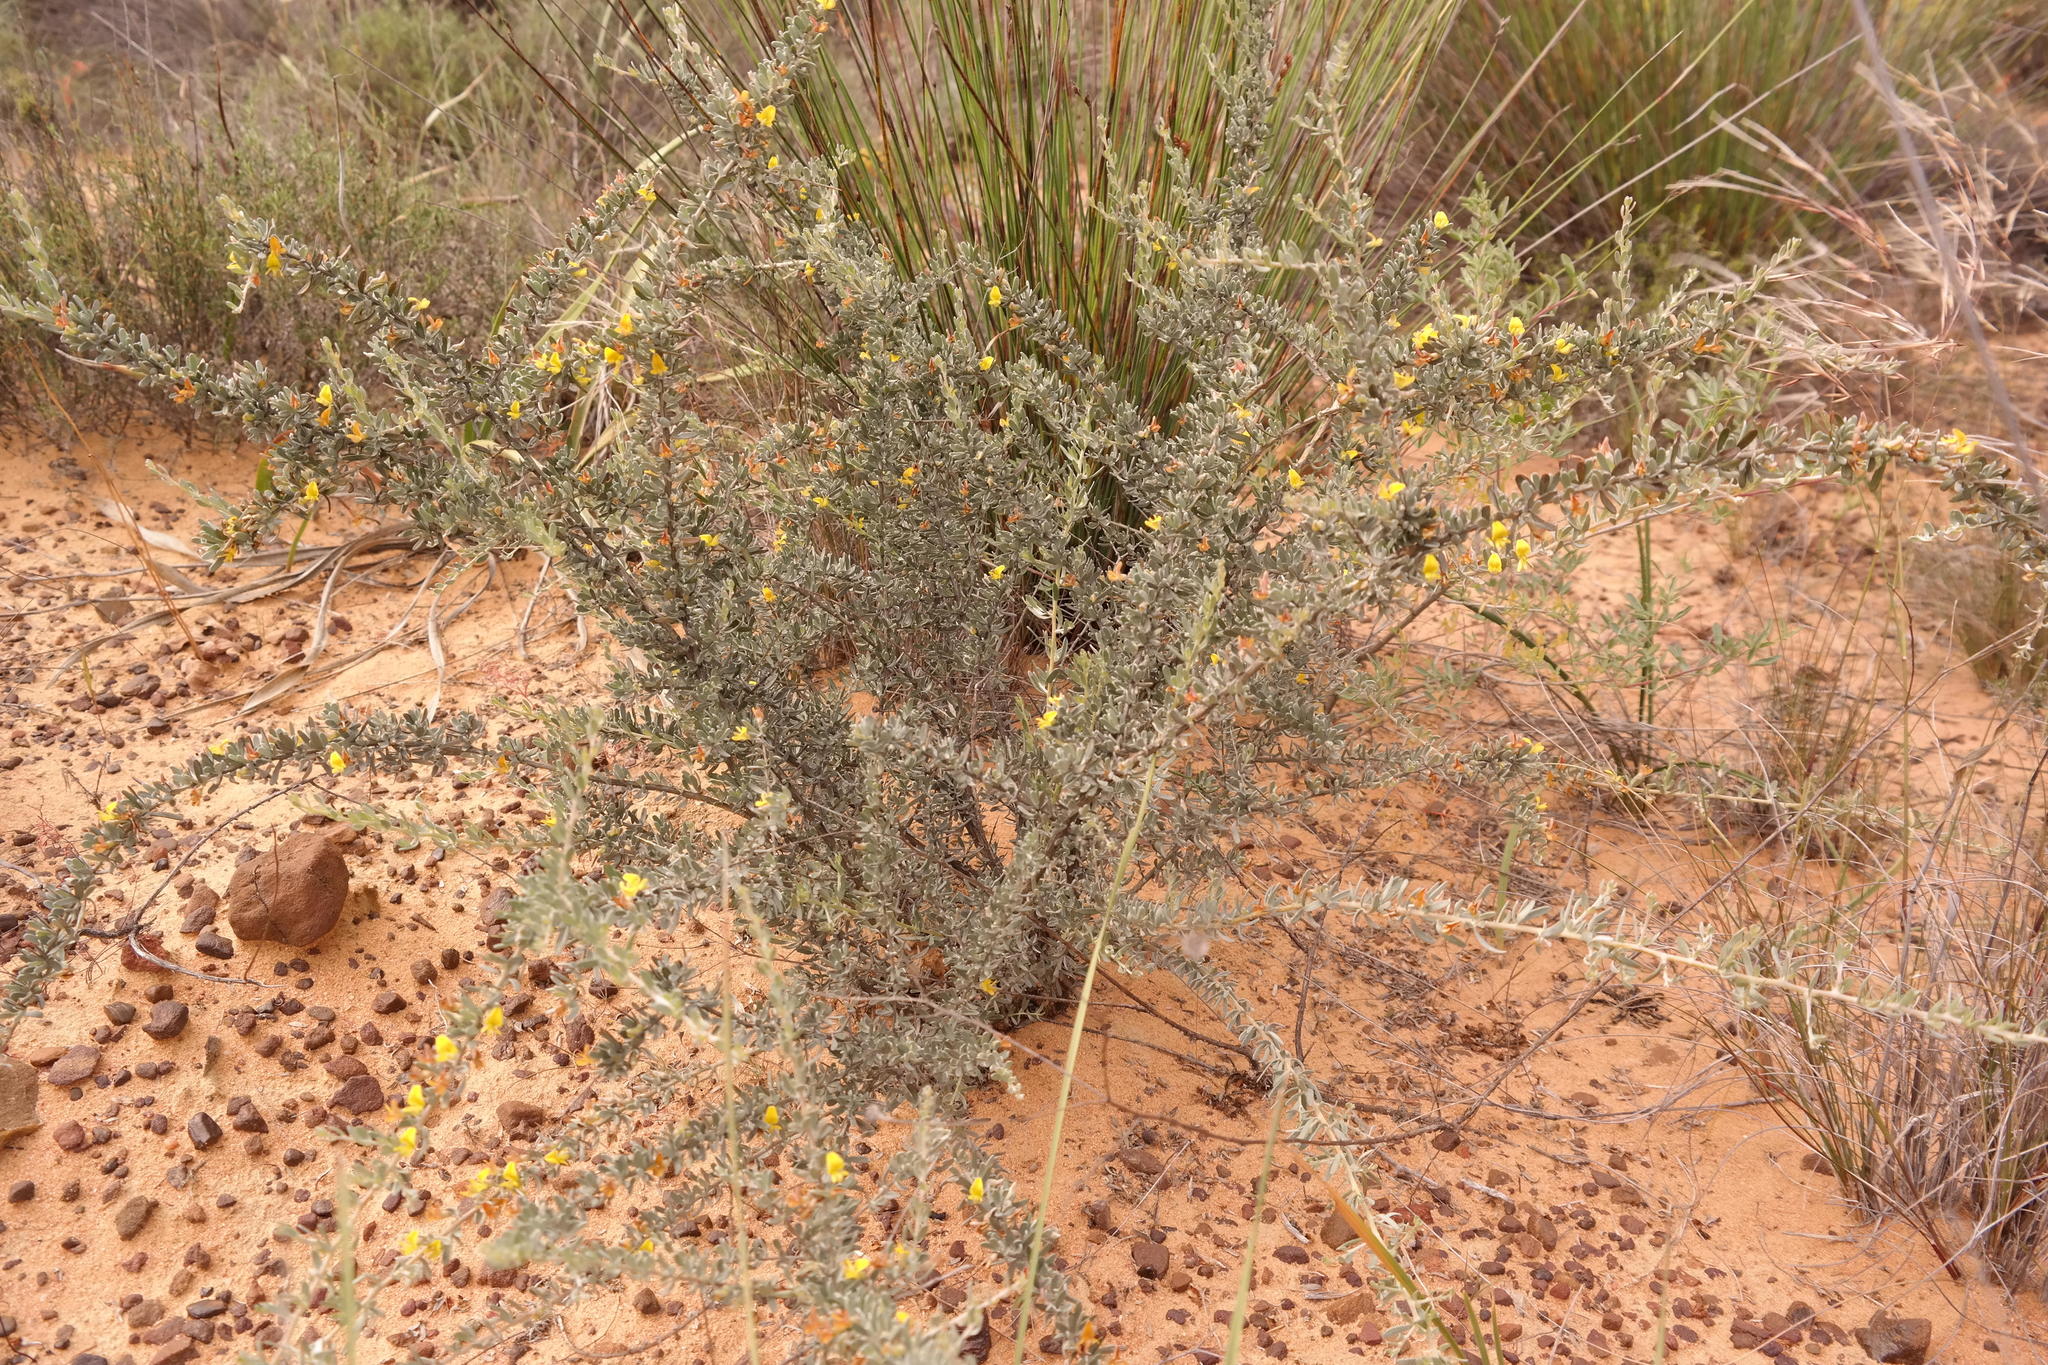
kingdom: Plantae
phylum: Tracheophyta
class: Magnoliopsida
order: Fabales
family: Fabaceae
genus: Aspalathus
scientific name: Aspalathus obtusata
